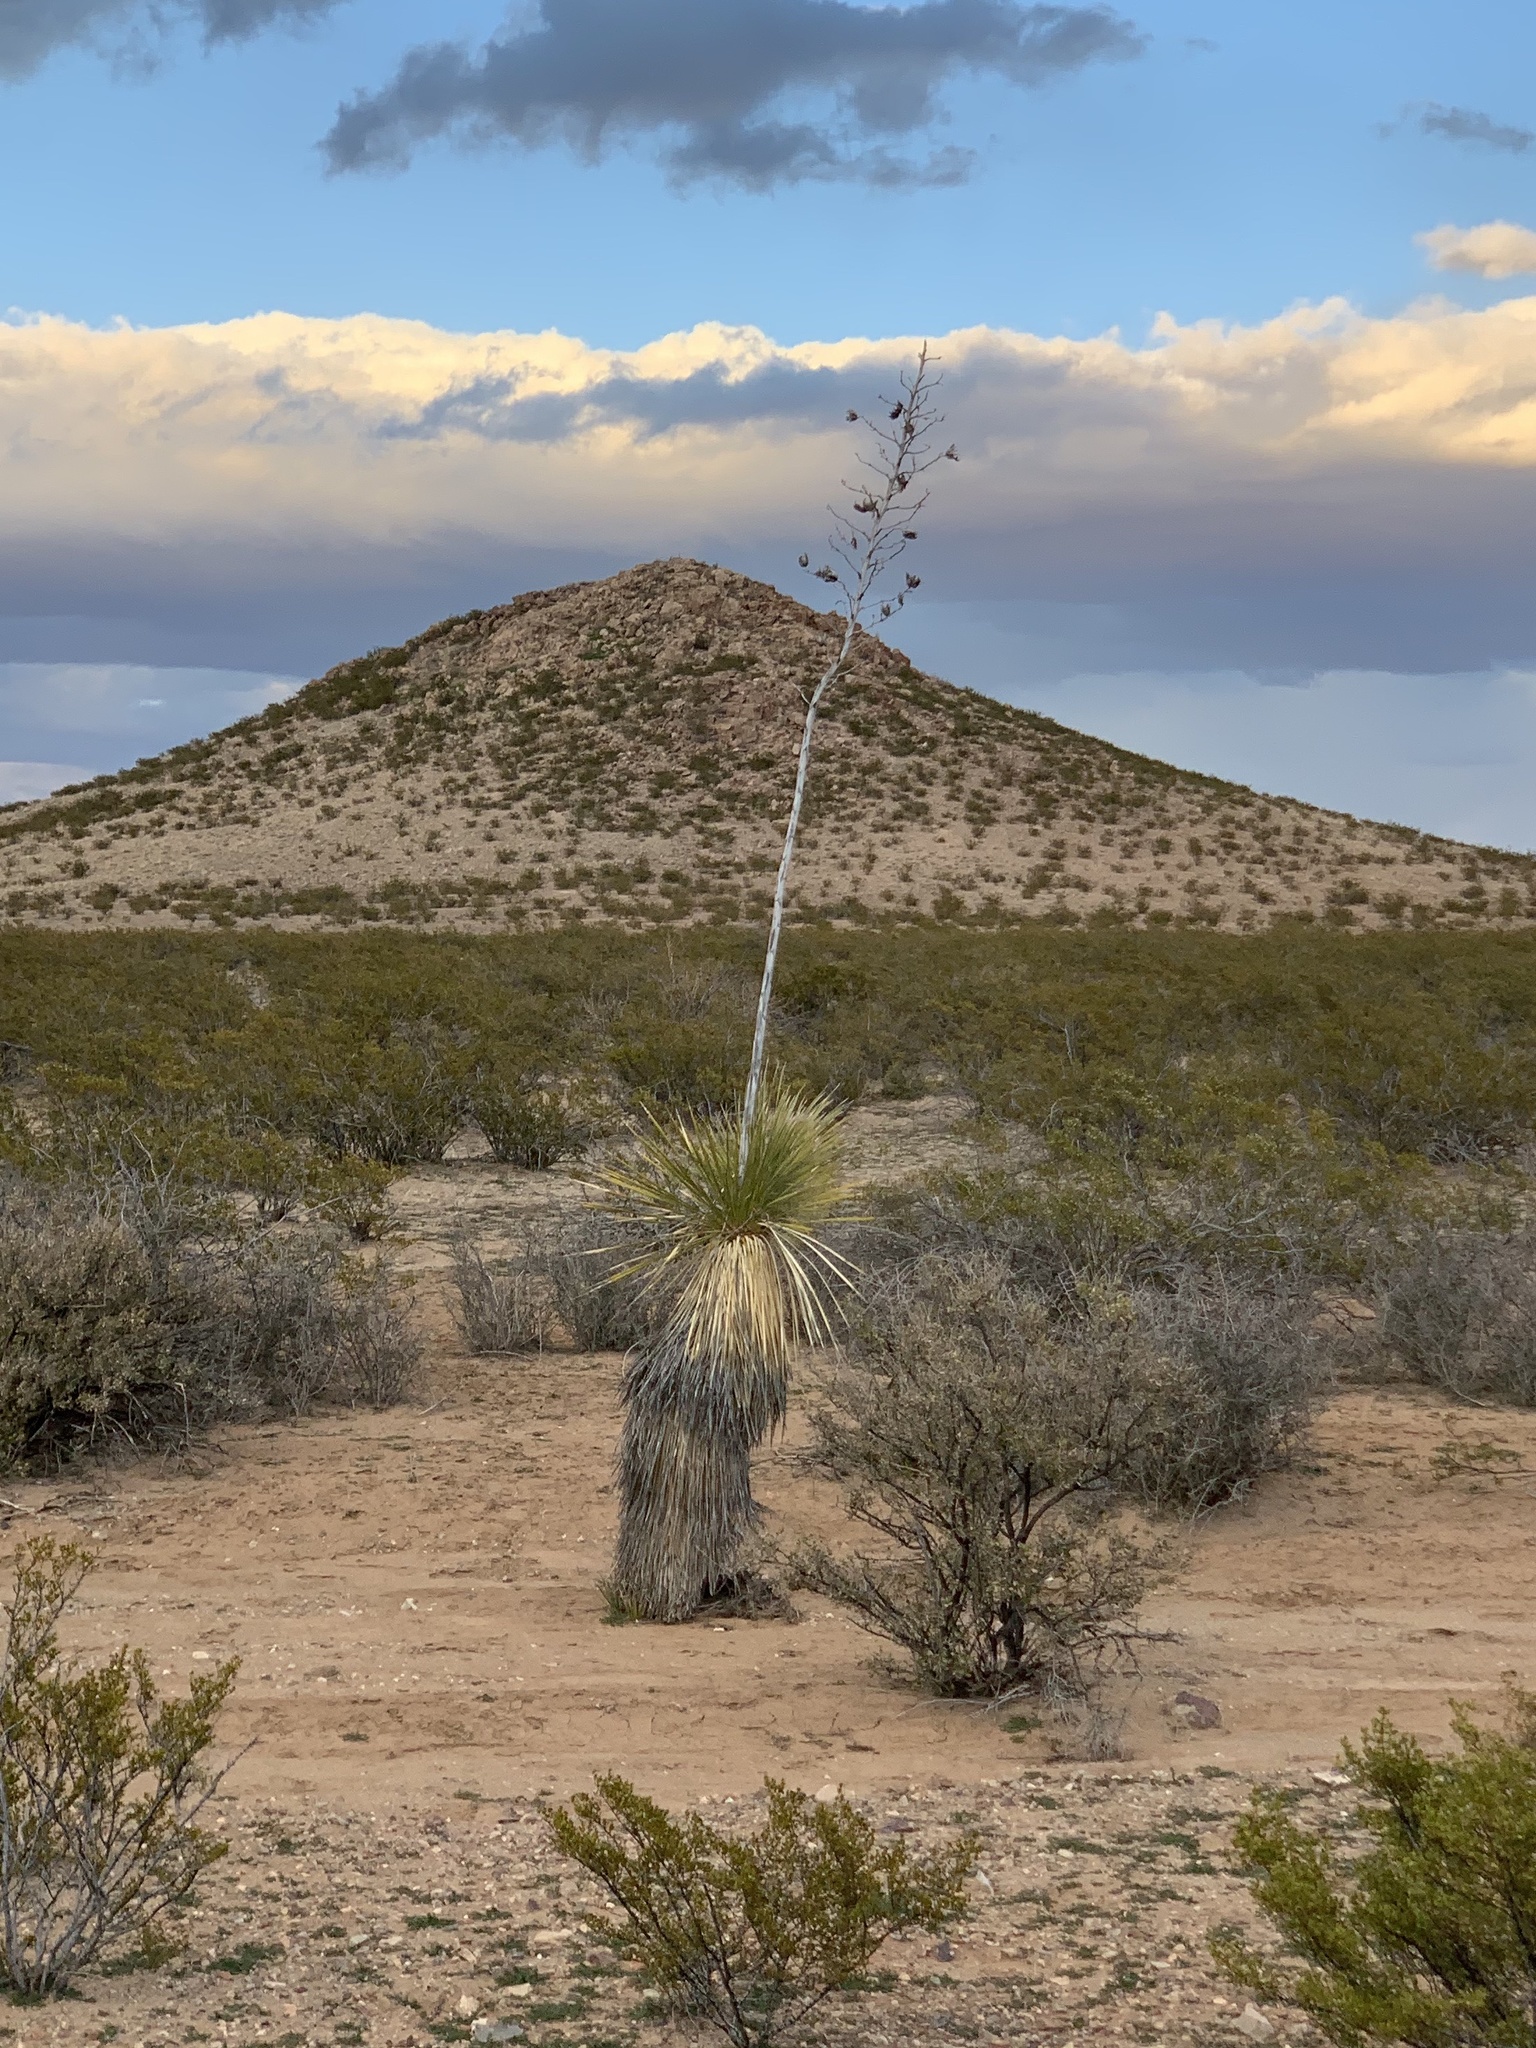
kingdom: Plantae
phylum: Tracheophyta
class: Liliopsida
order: Asparagales
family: Asparagaceae
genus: Yucca
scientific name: Yucca elata
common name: Palmella
